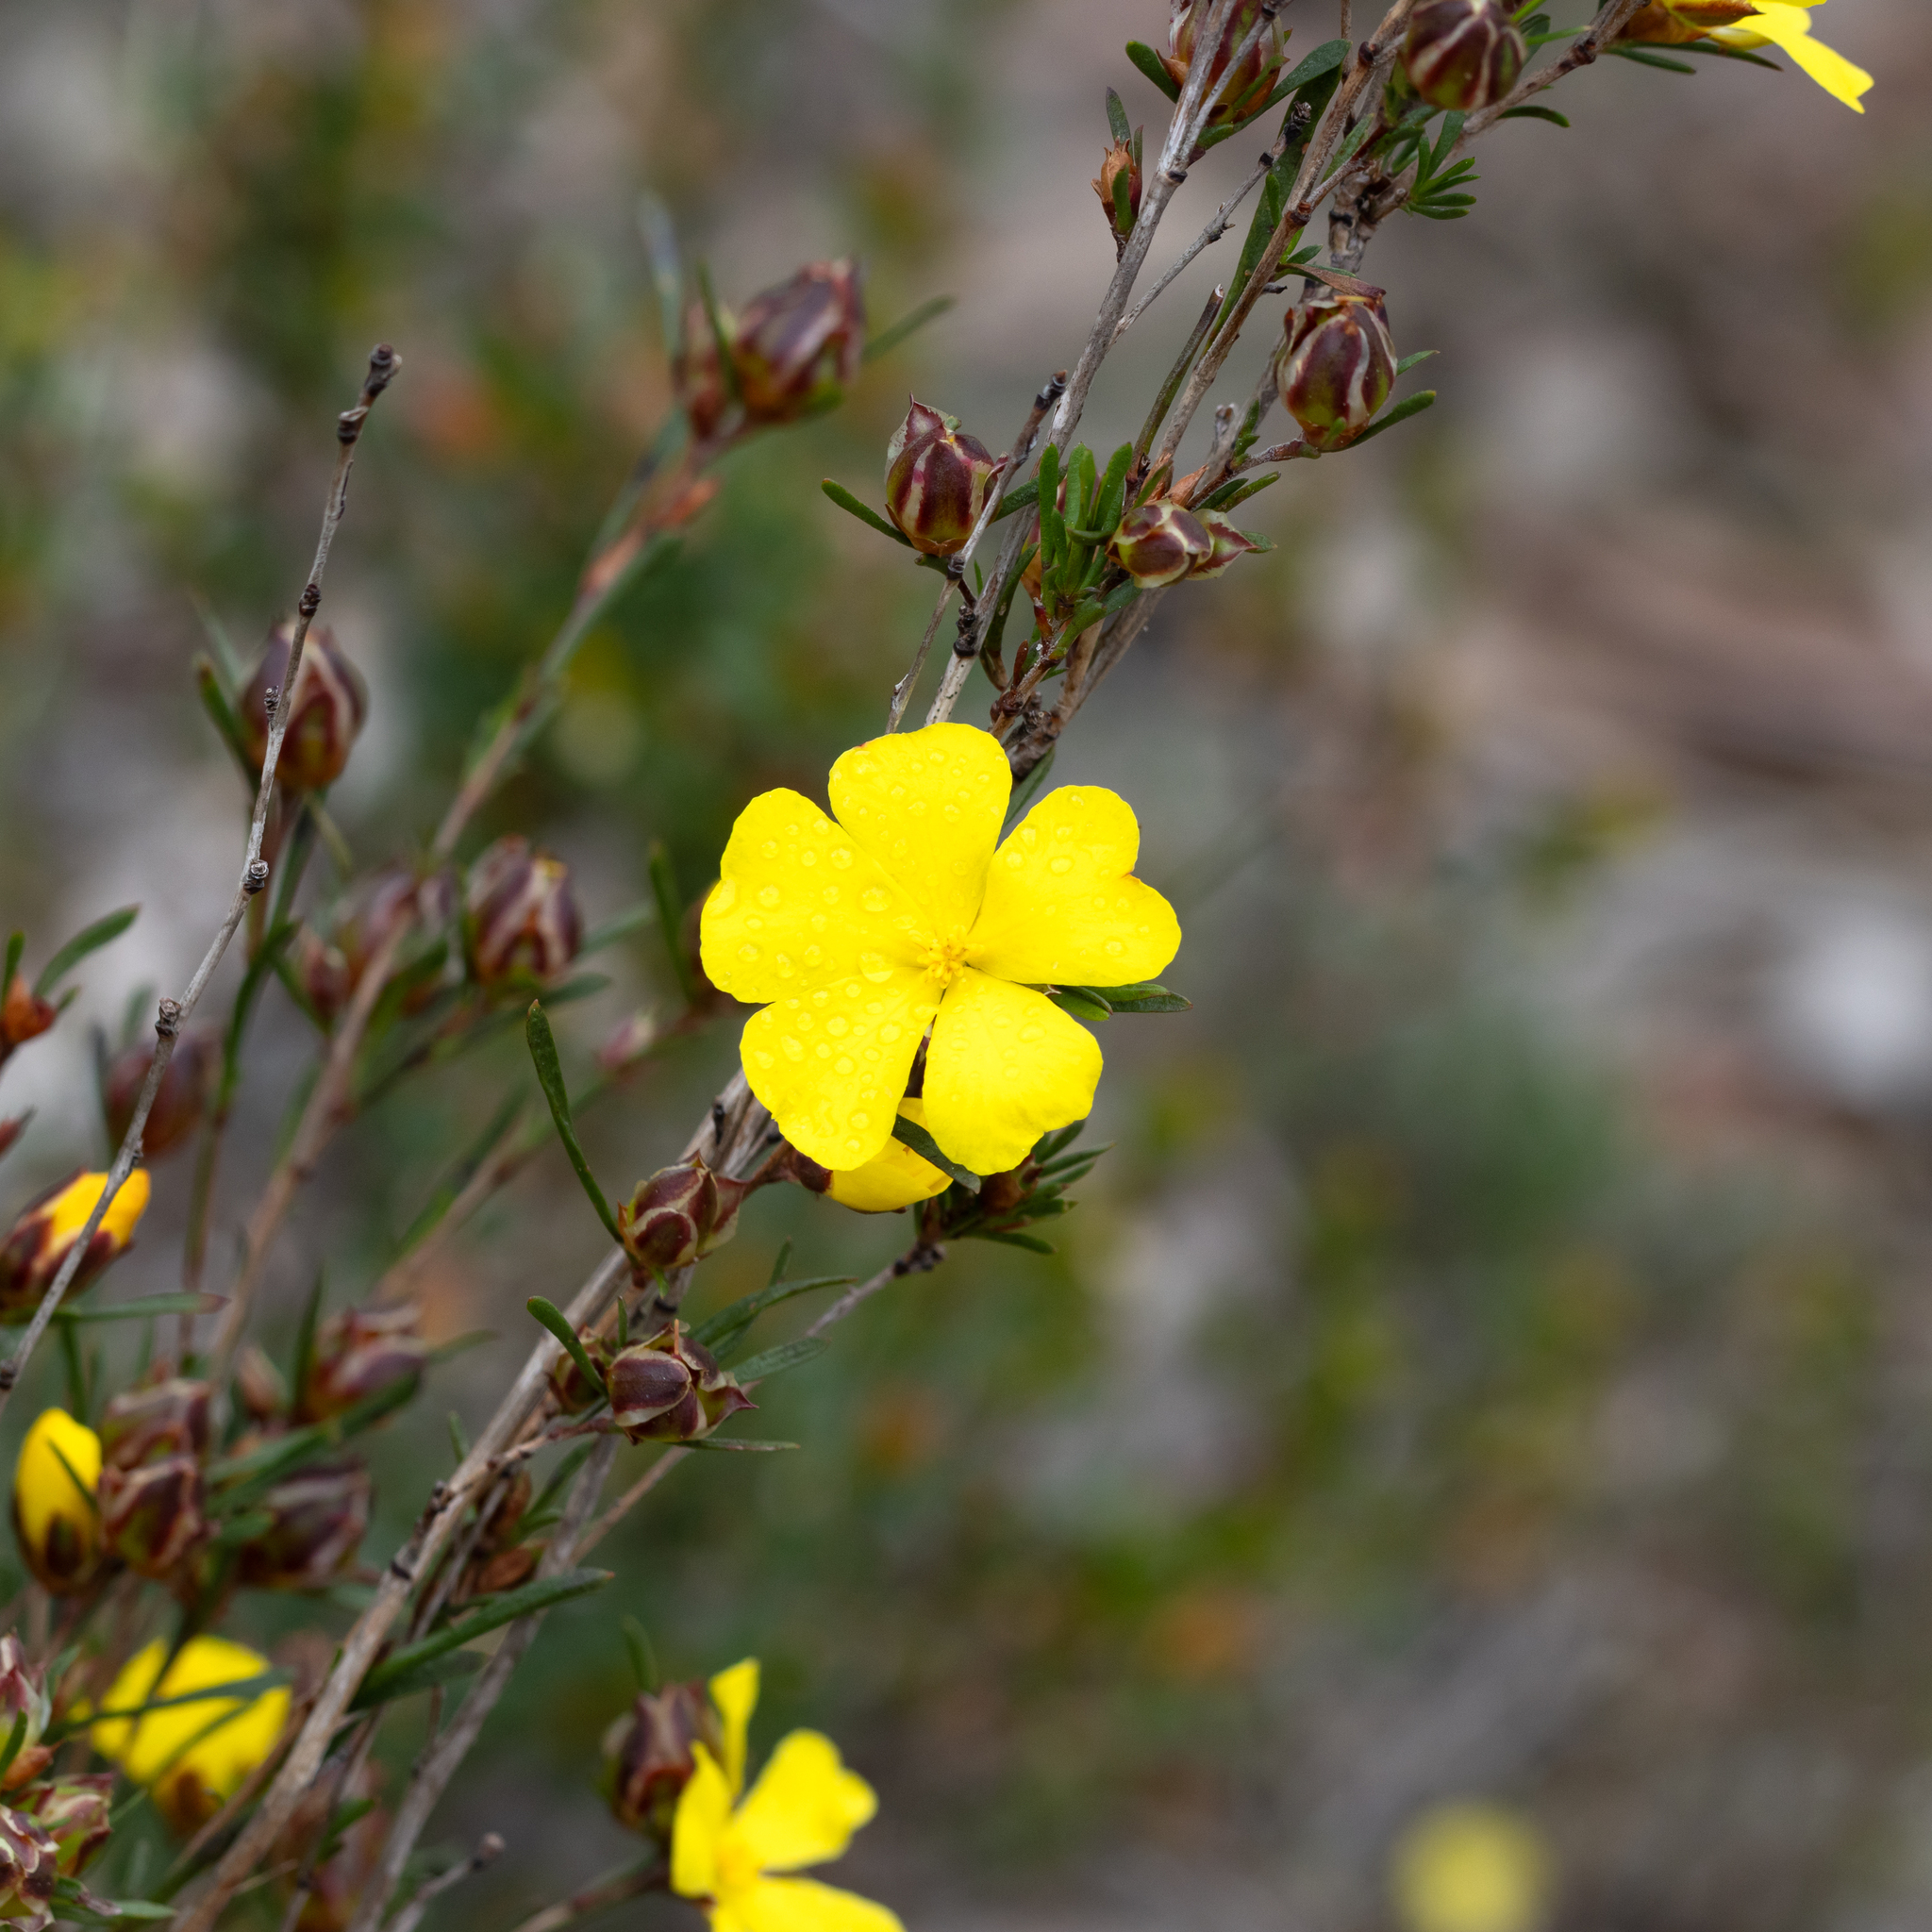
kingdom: Plantae
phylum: Tracheophyta
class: Magnoliopsida
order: Dilleniales
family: Dilleniaceae
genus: Hibbertia
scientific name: Hibbertia virgata
